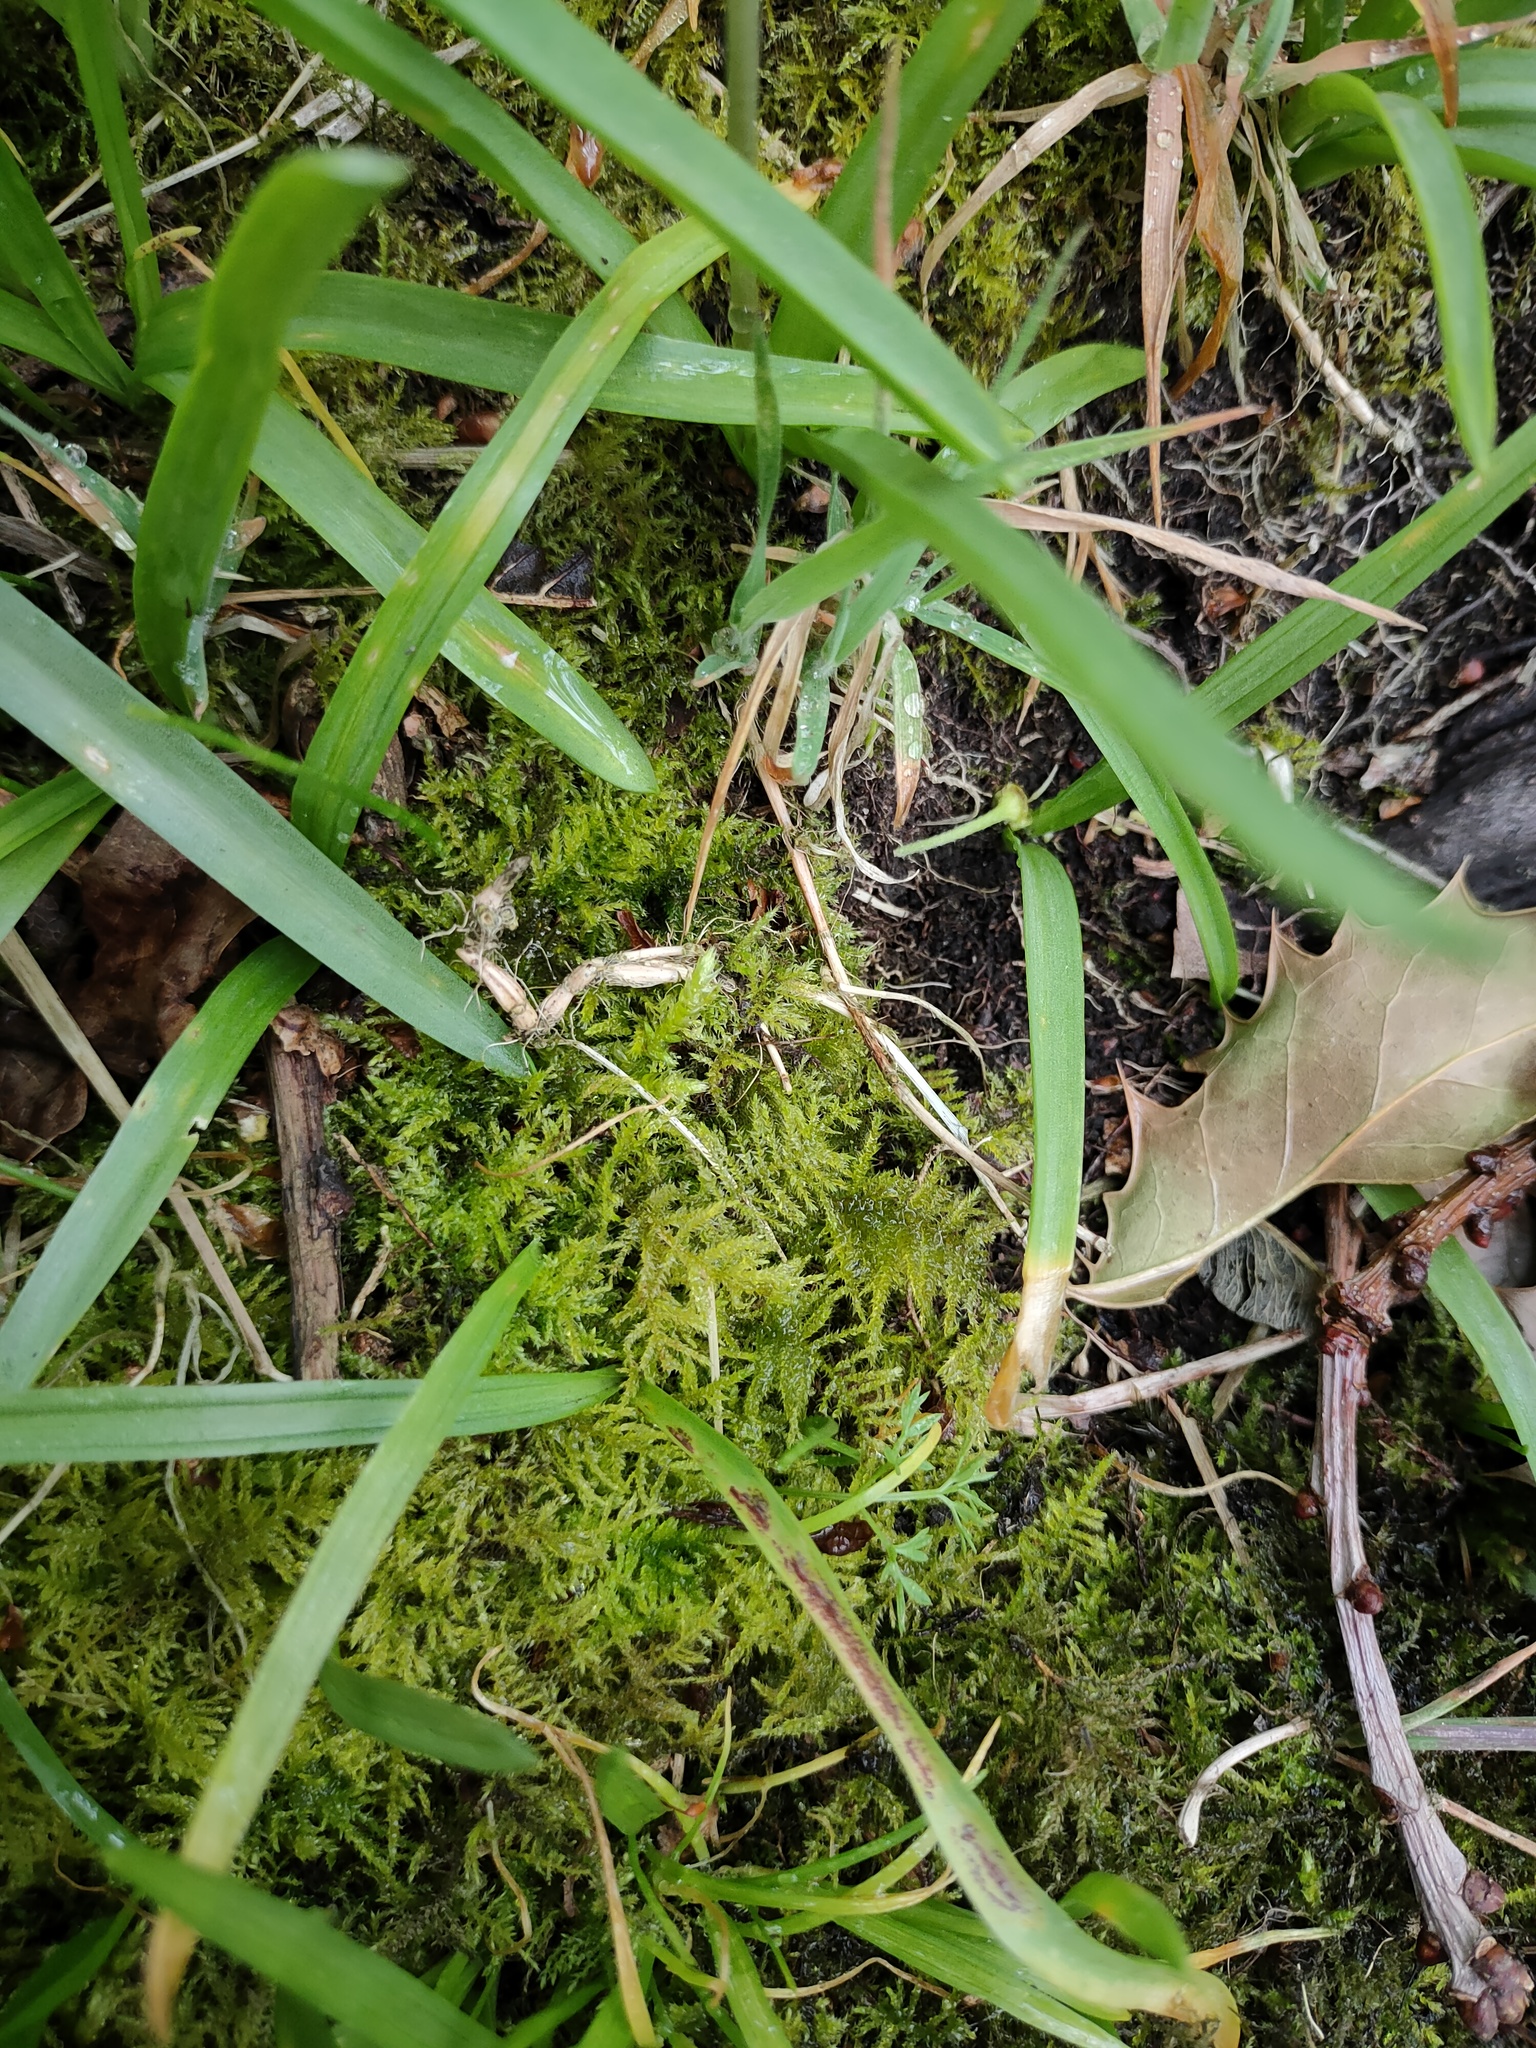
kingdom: Plantae
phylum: Bryophyta
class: Bryopsida
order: Hypnales
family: Brachytheciaceae
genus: Kindbergia
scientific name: Kindbergia praelonga
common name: Slender beaked moss
